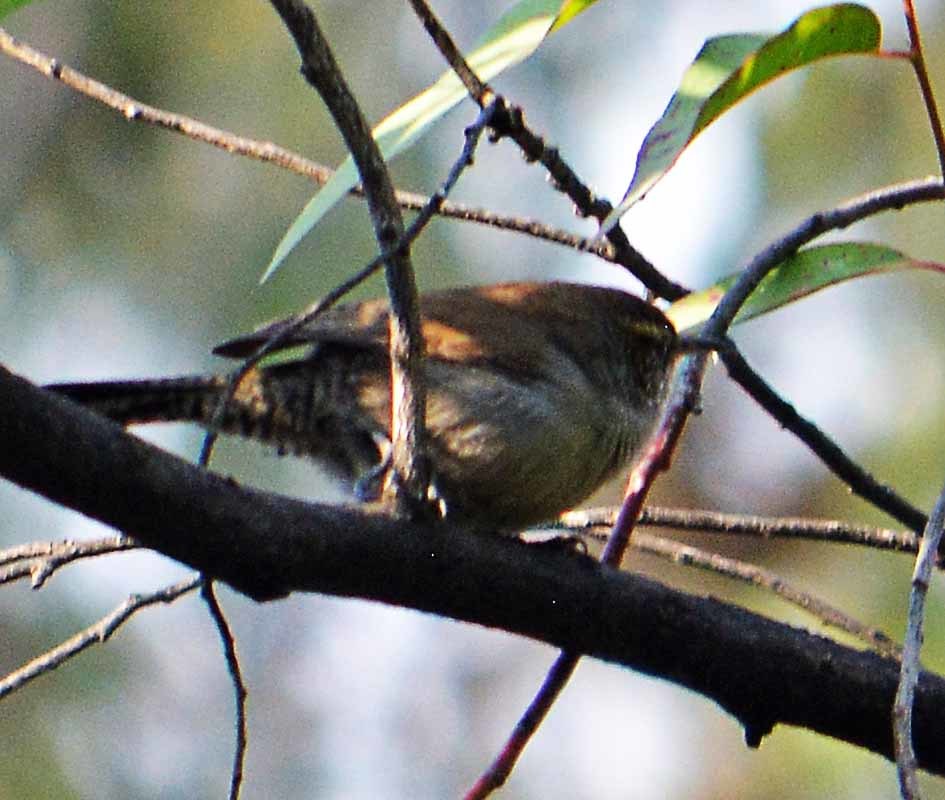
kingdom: Animalia
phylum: Chordata
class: Aves
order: Passeriformes
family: Troglodytidae
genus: Thryomanes
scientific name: Thryomanes bewickii
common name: Bewick's wren
